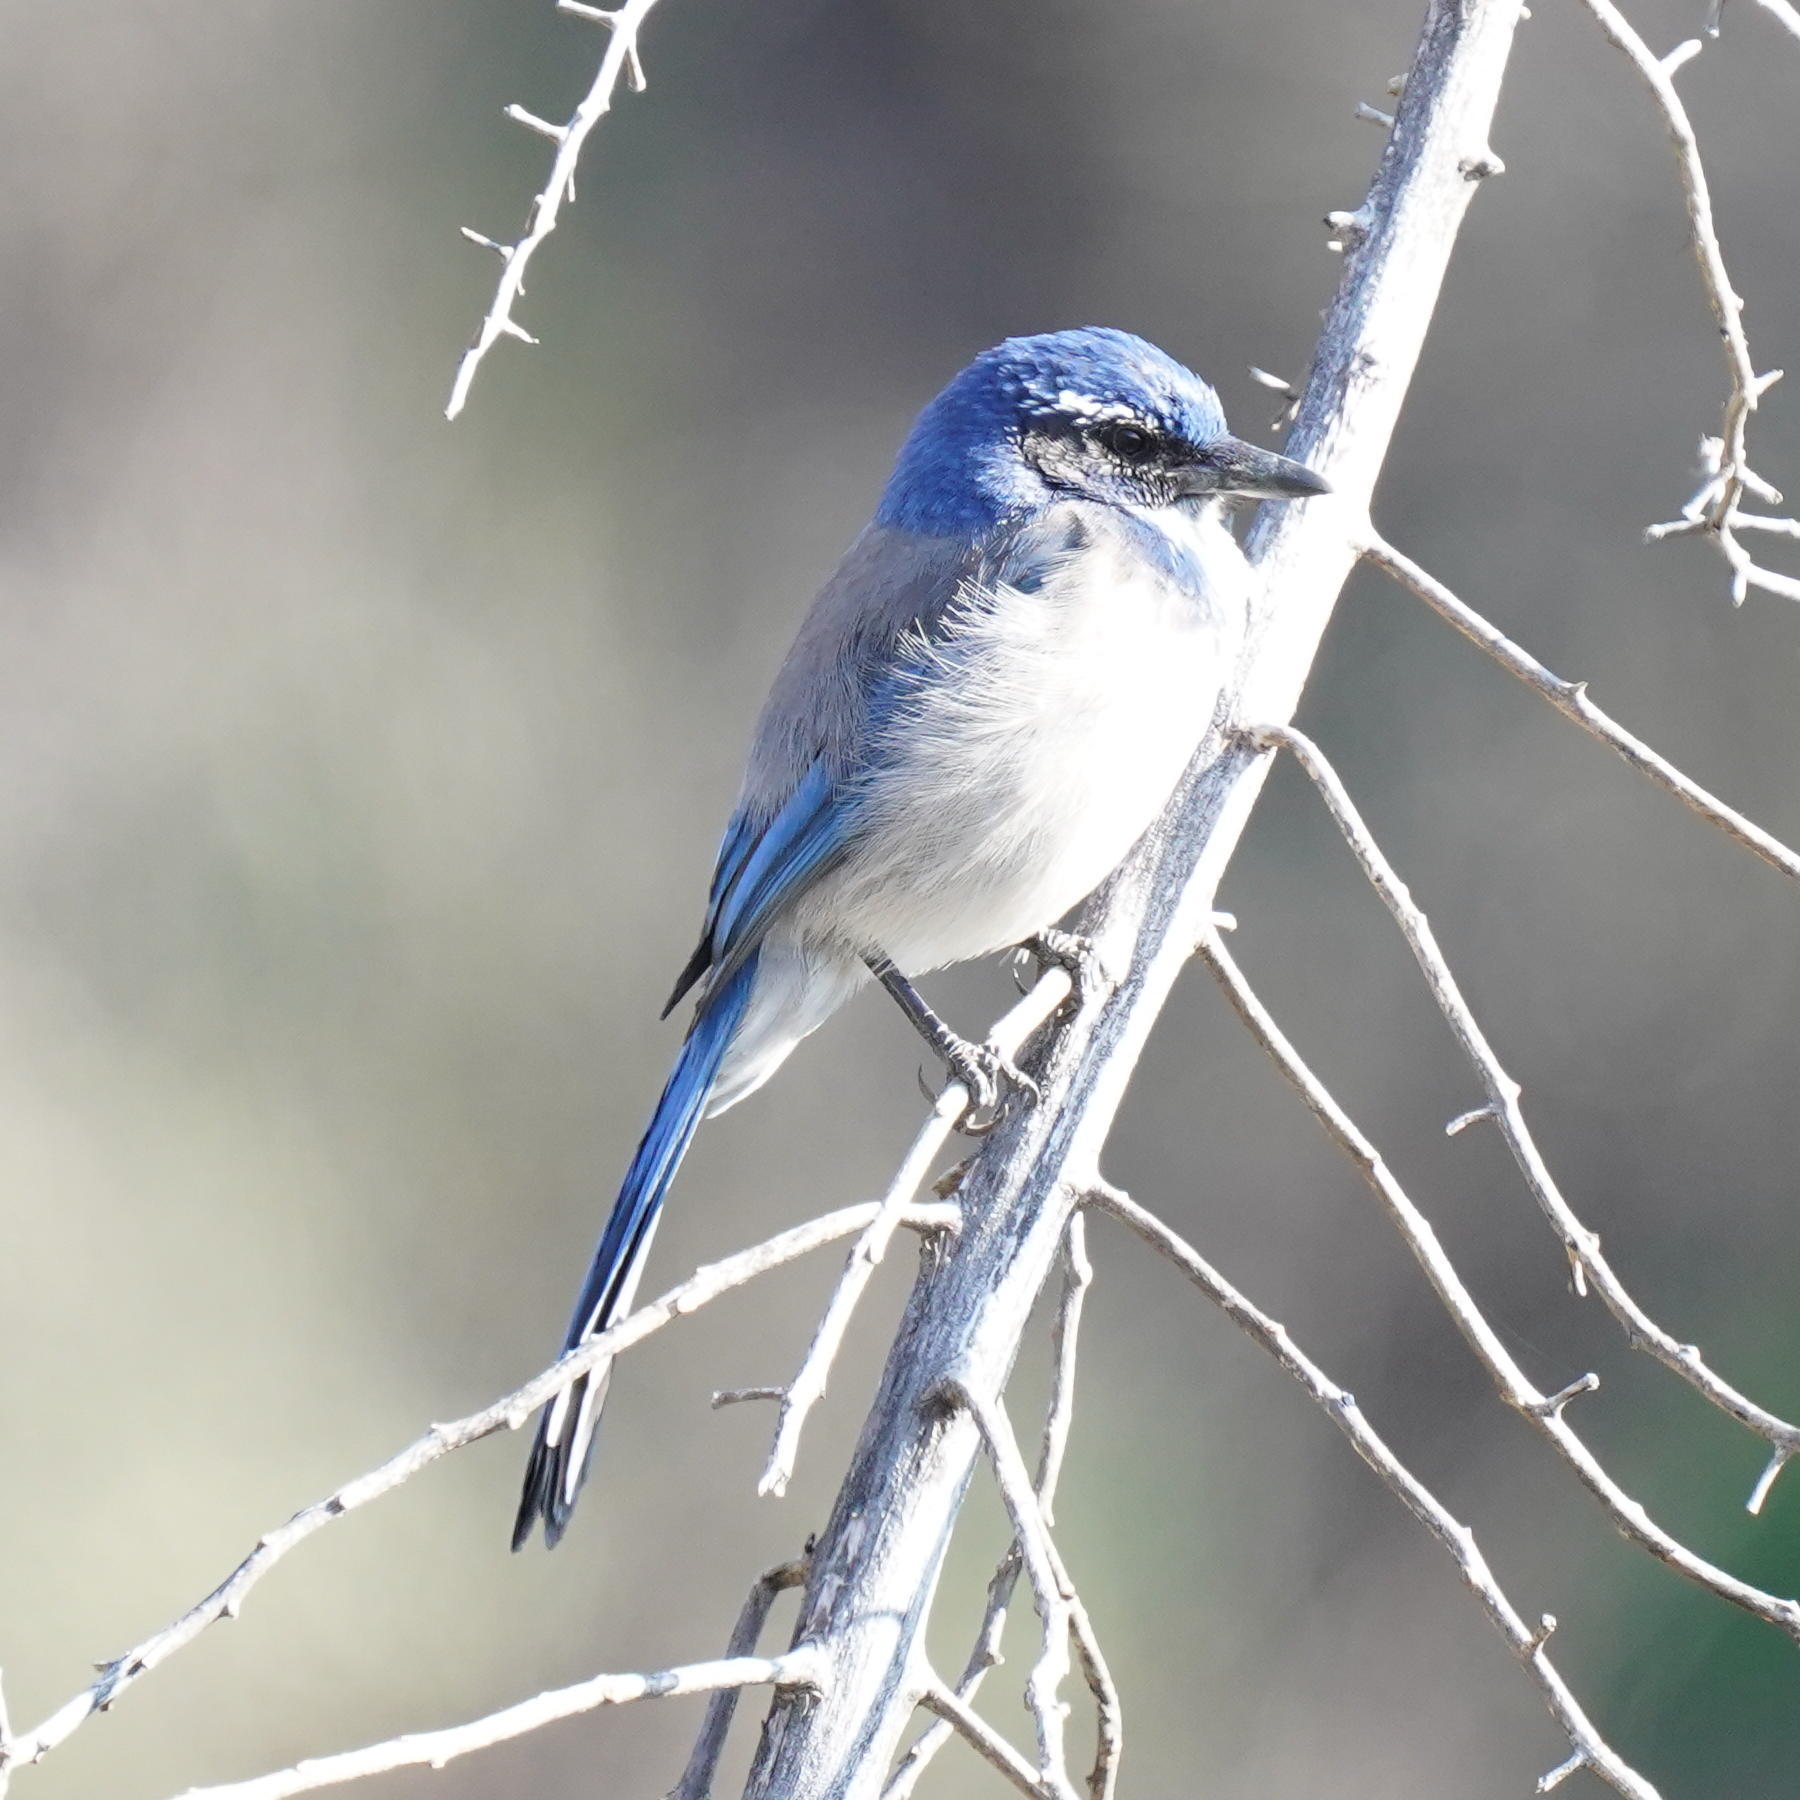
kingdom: Animalia
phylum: Chordata
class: Aves
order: Passeriformes
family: Corvidae
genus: Aphelocoma
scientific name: Aphelocoma californica
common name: California scrub-jay
